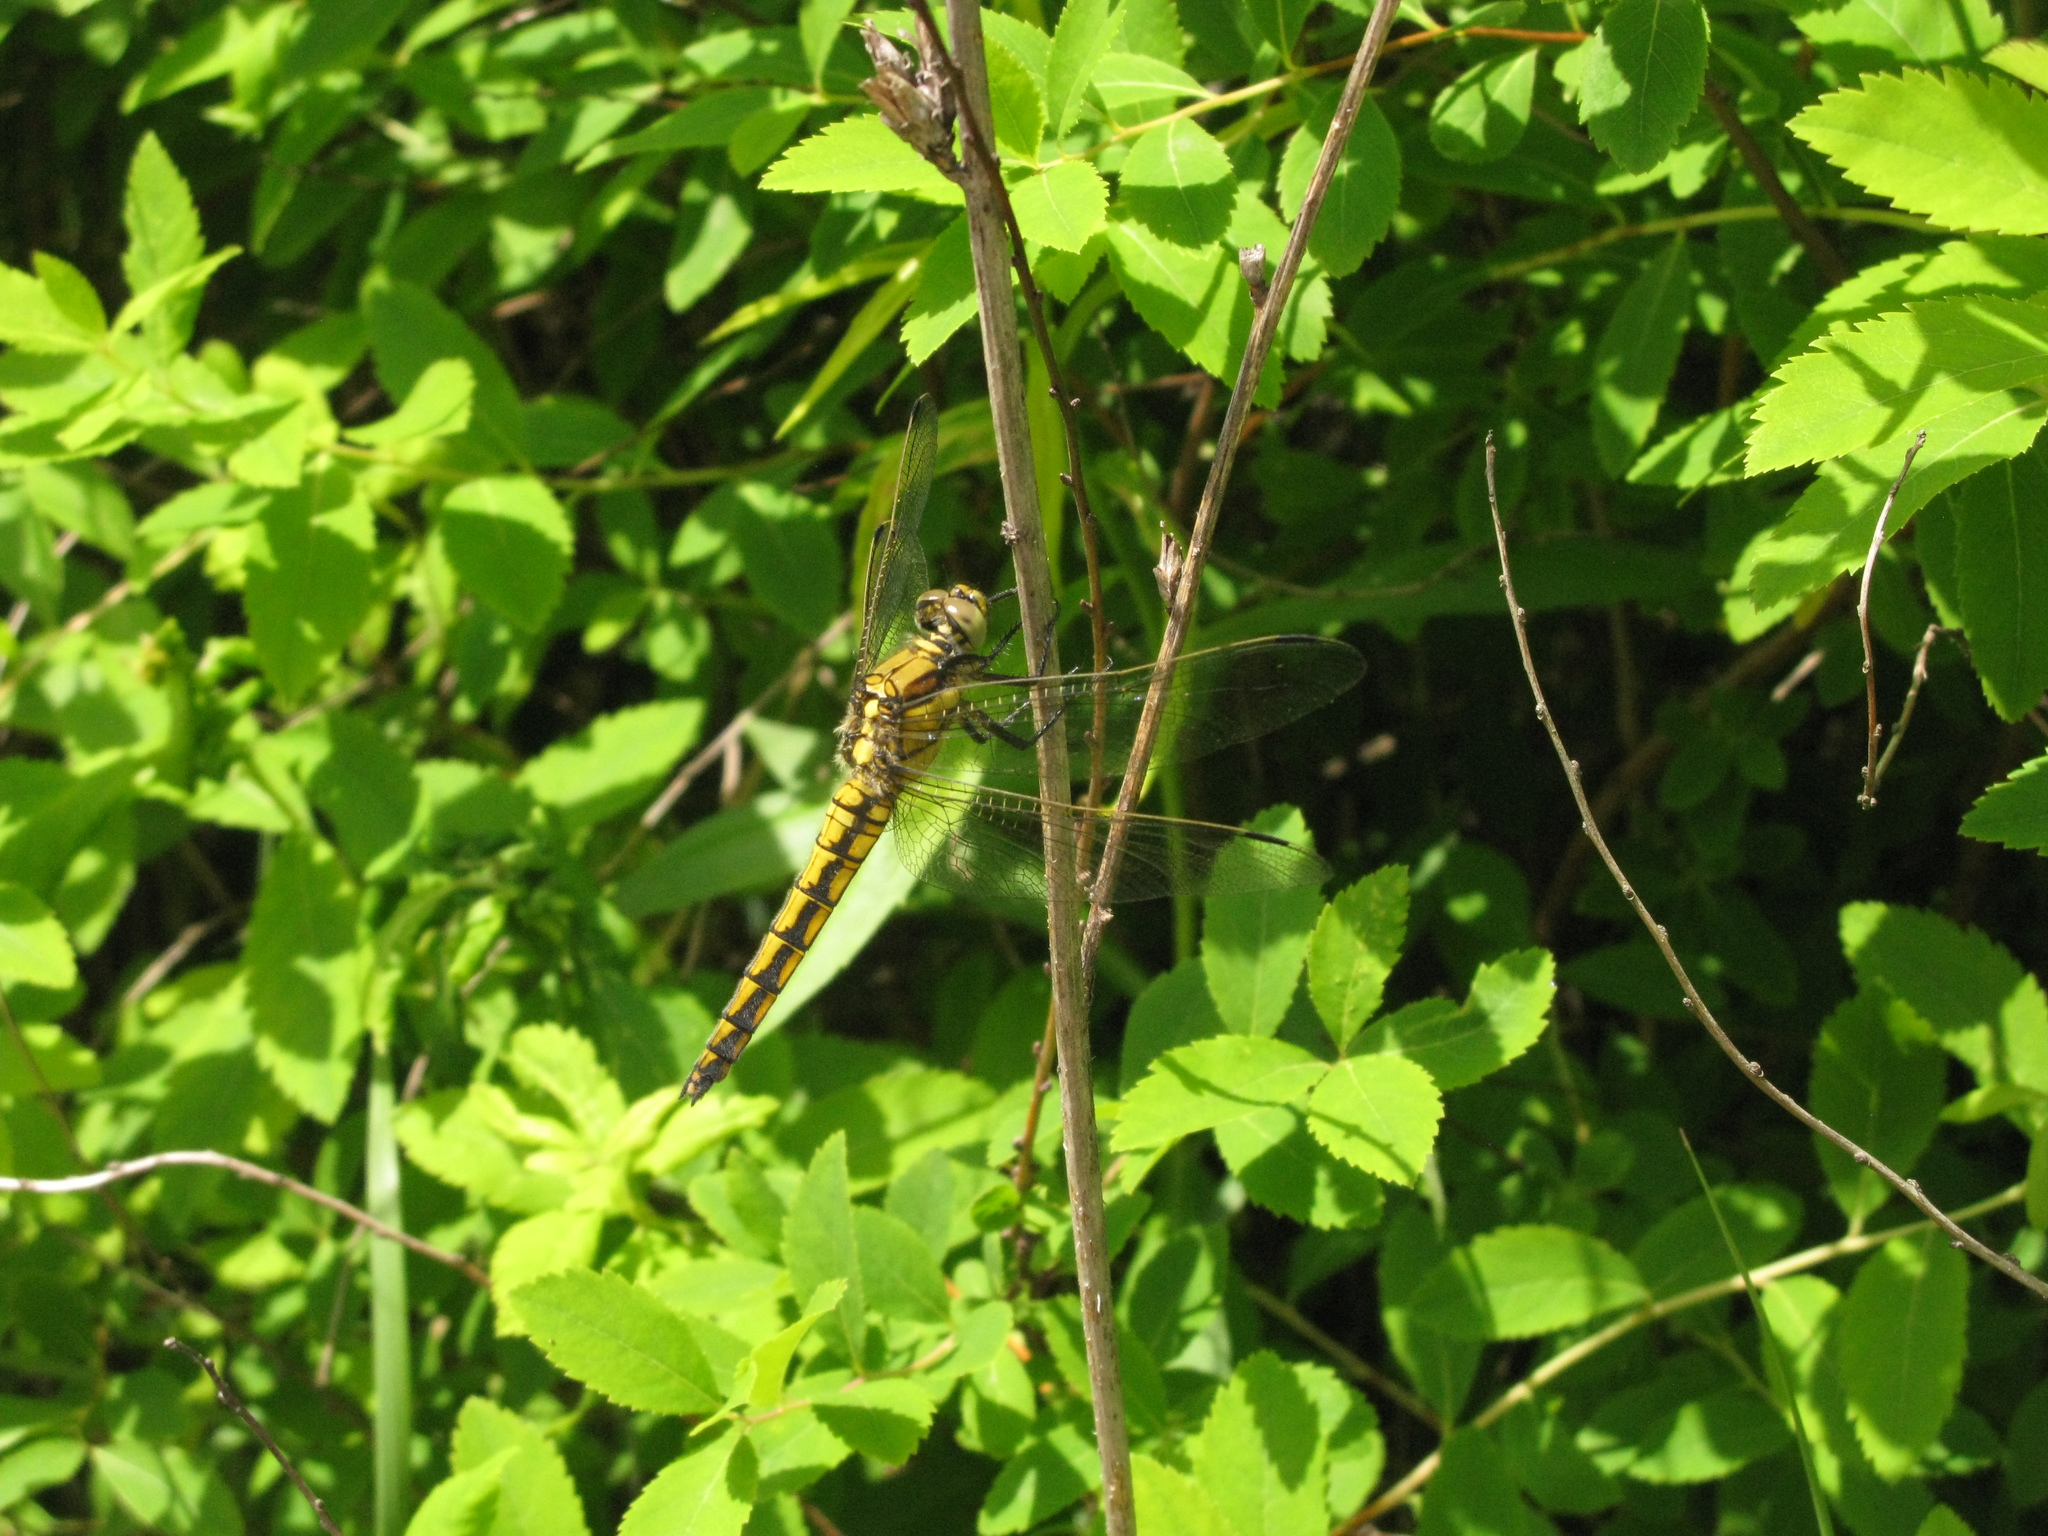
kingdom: Animalia
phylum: Arthropoda
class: Insecta
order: Odonata
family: Libellulidae
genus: Orthetrum
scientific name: Orthetrum cancellatum
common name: Black-tailed skimmer
